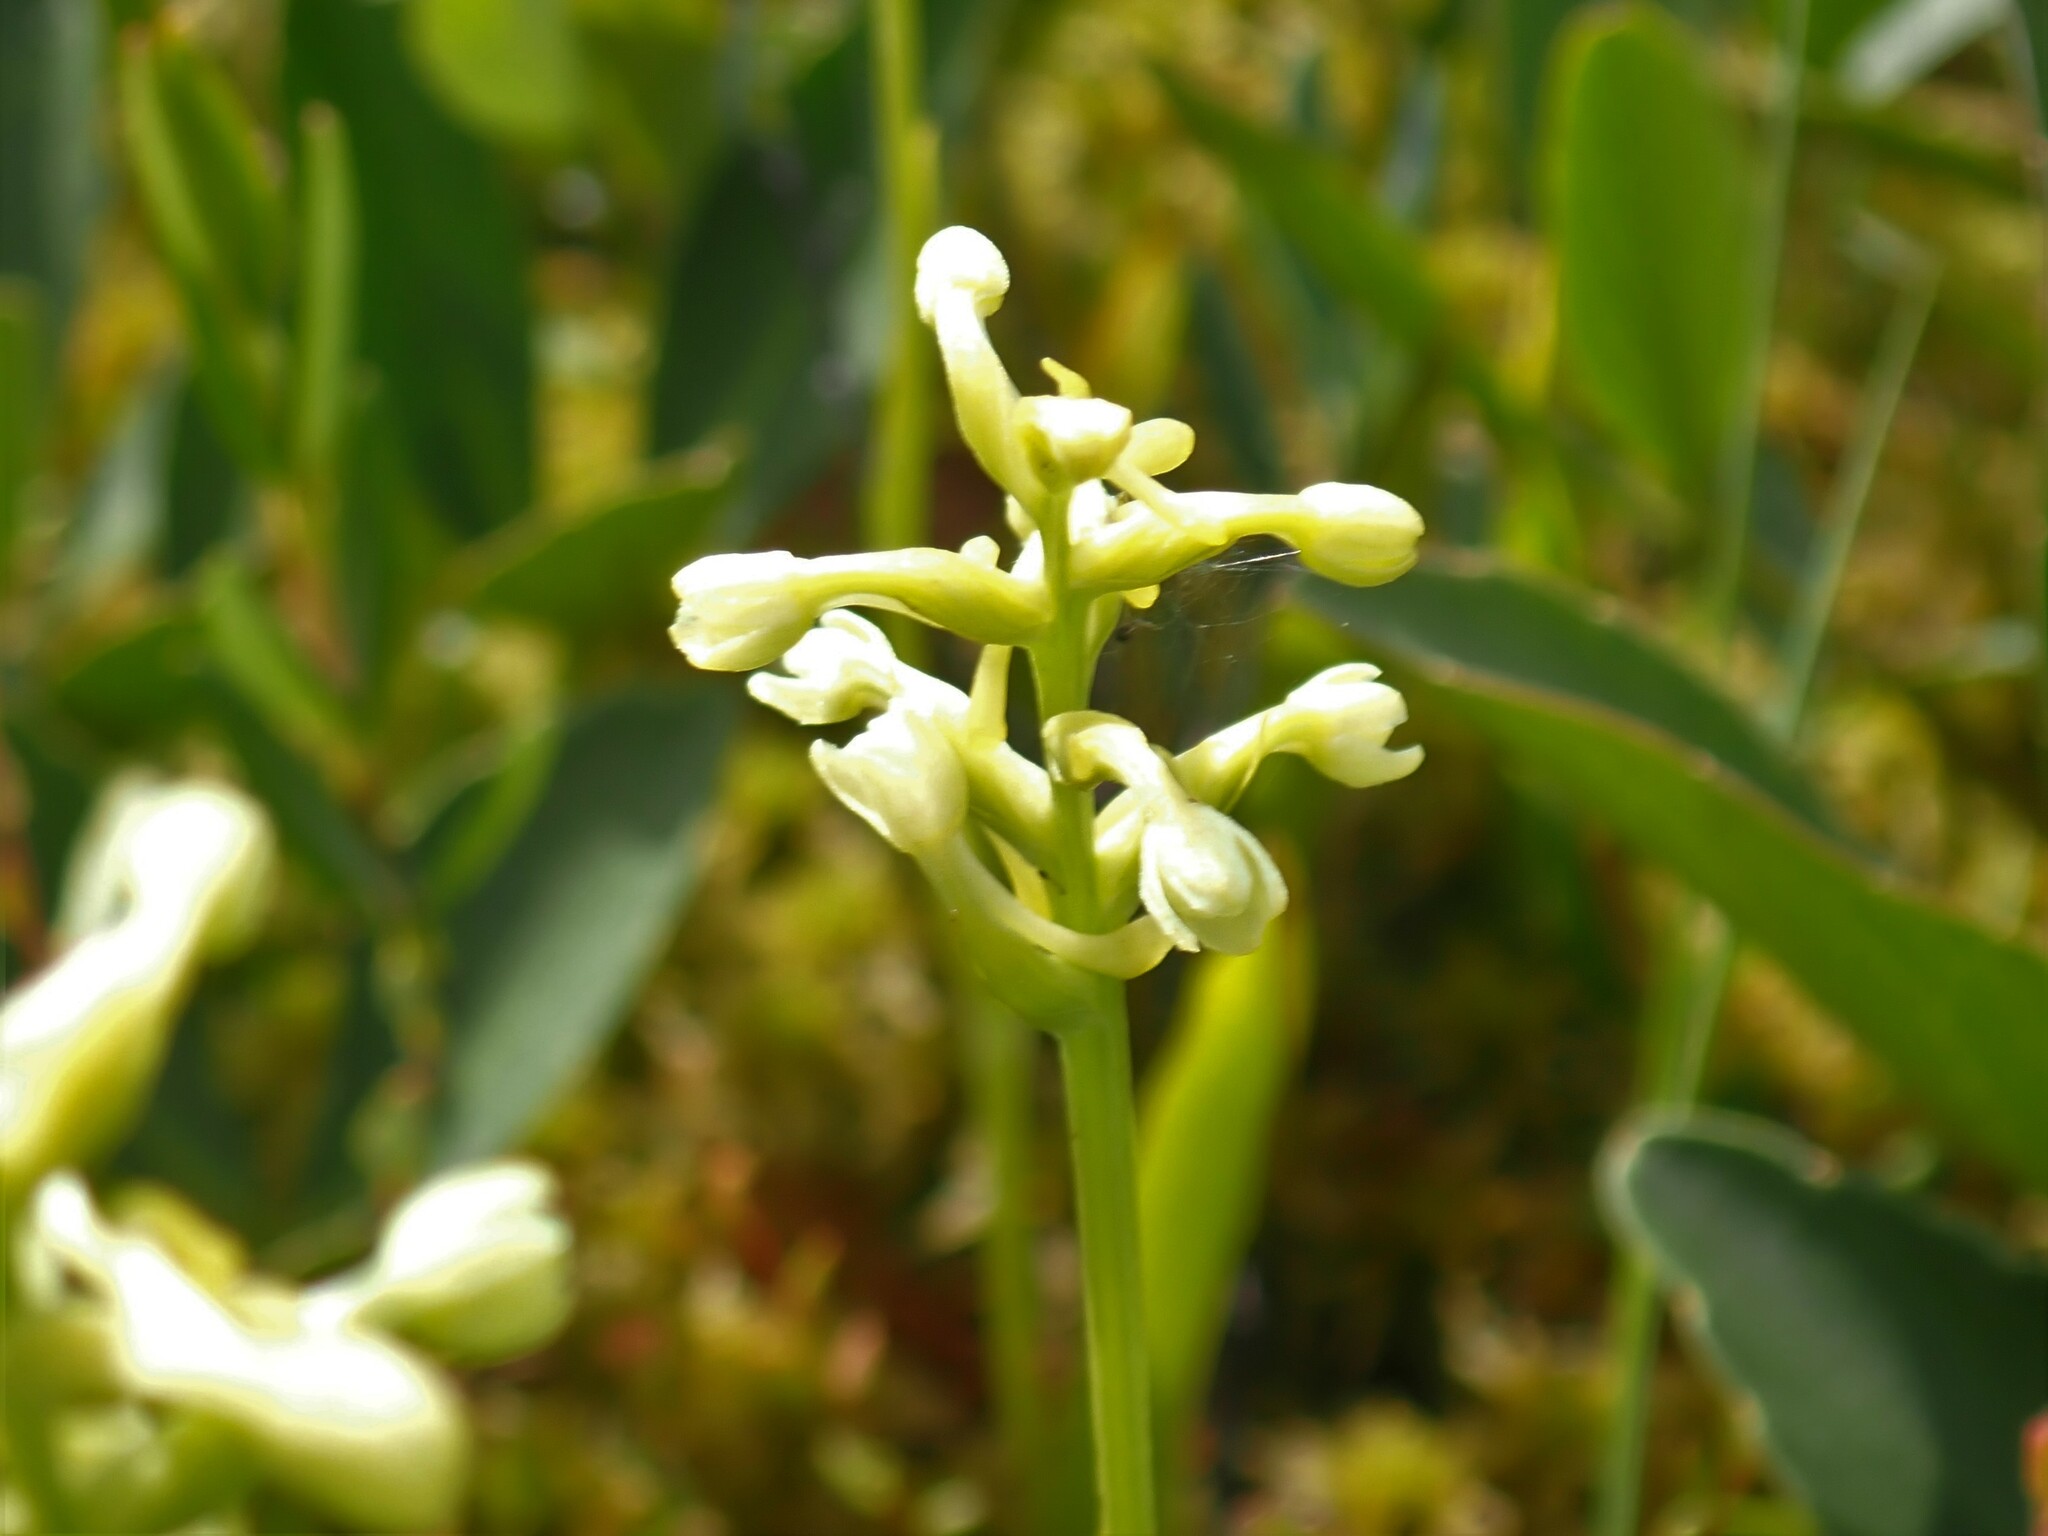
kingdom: Plantae
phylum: Tracheophyta
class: Liliopsida
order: Asparagales
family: Orchidaceae
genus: Platanthera
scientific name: Platanthera clavellata
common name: Club-spur orchid
